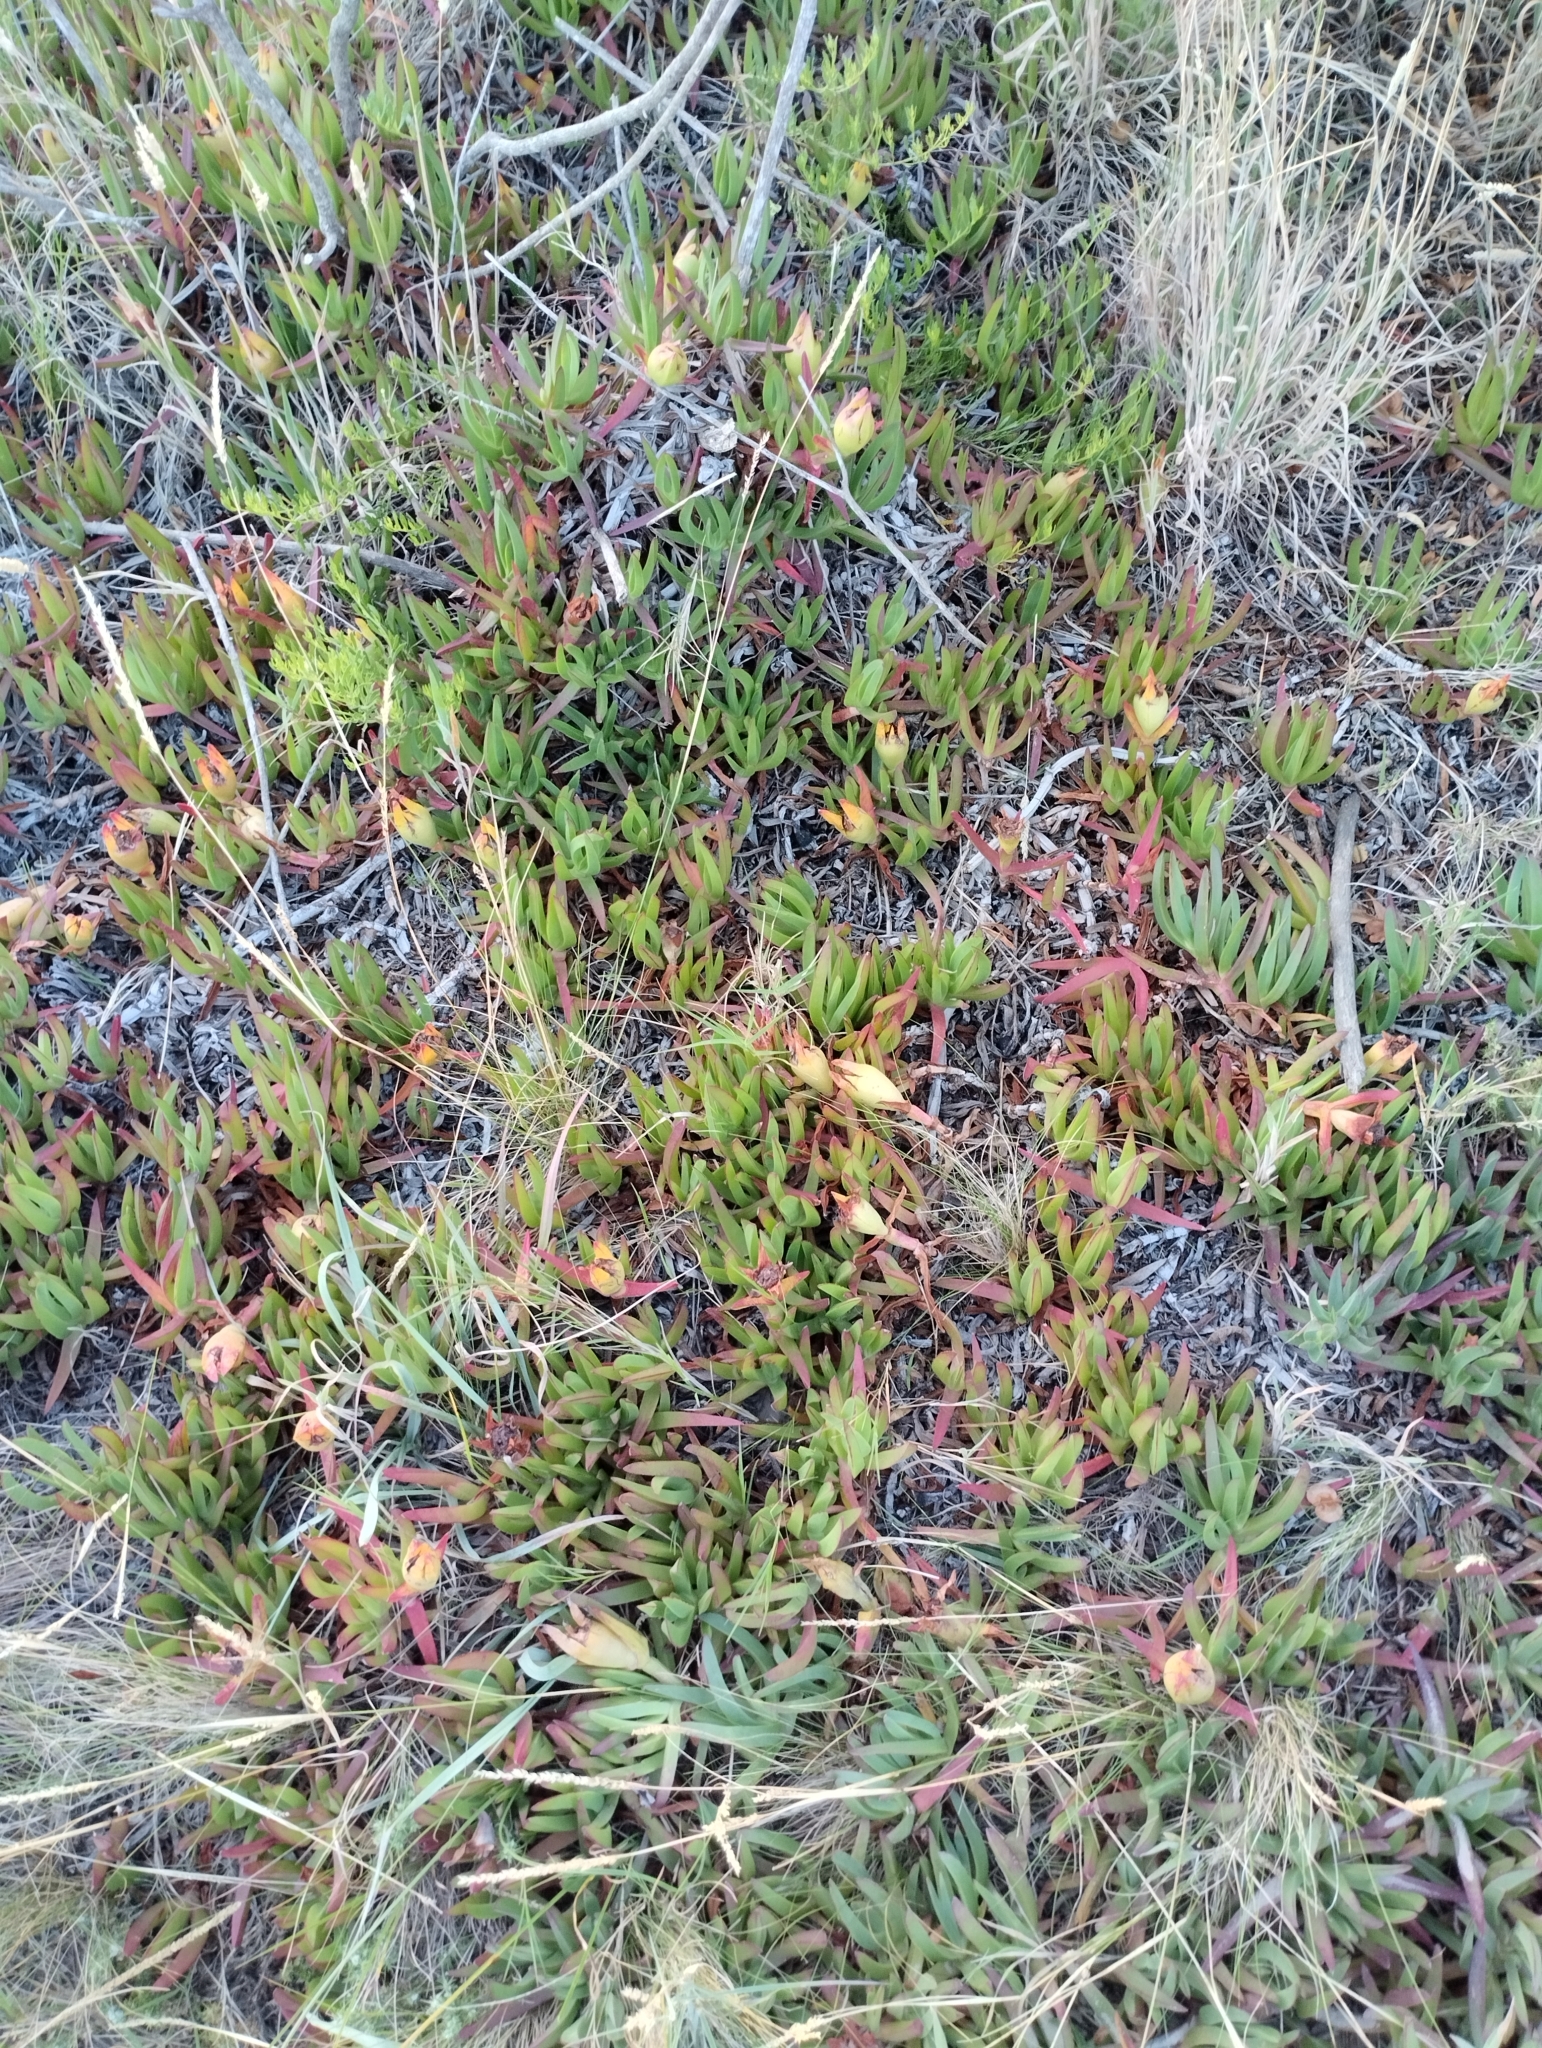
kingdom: Plantae
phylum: Tracheophyta
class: Magnoliopsida
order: Caryophyllales
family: Aizoaceae
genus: Carpobrotus
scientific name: Carpobrotus edulis
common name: Hottentot-fig
